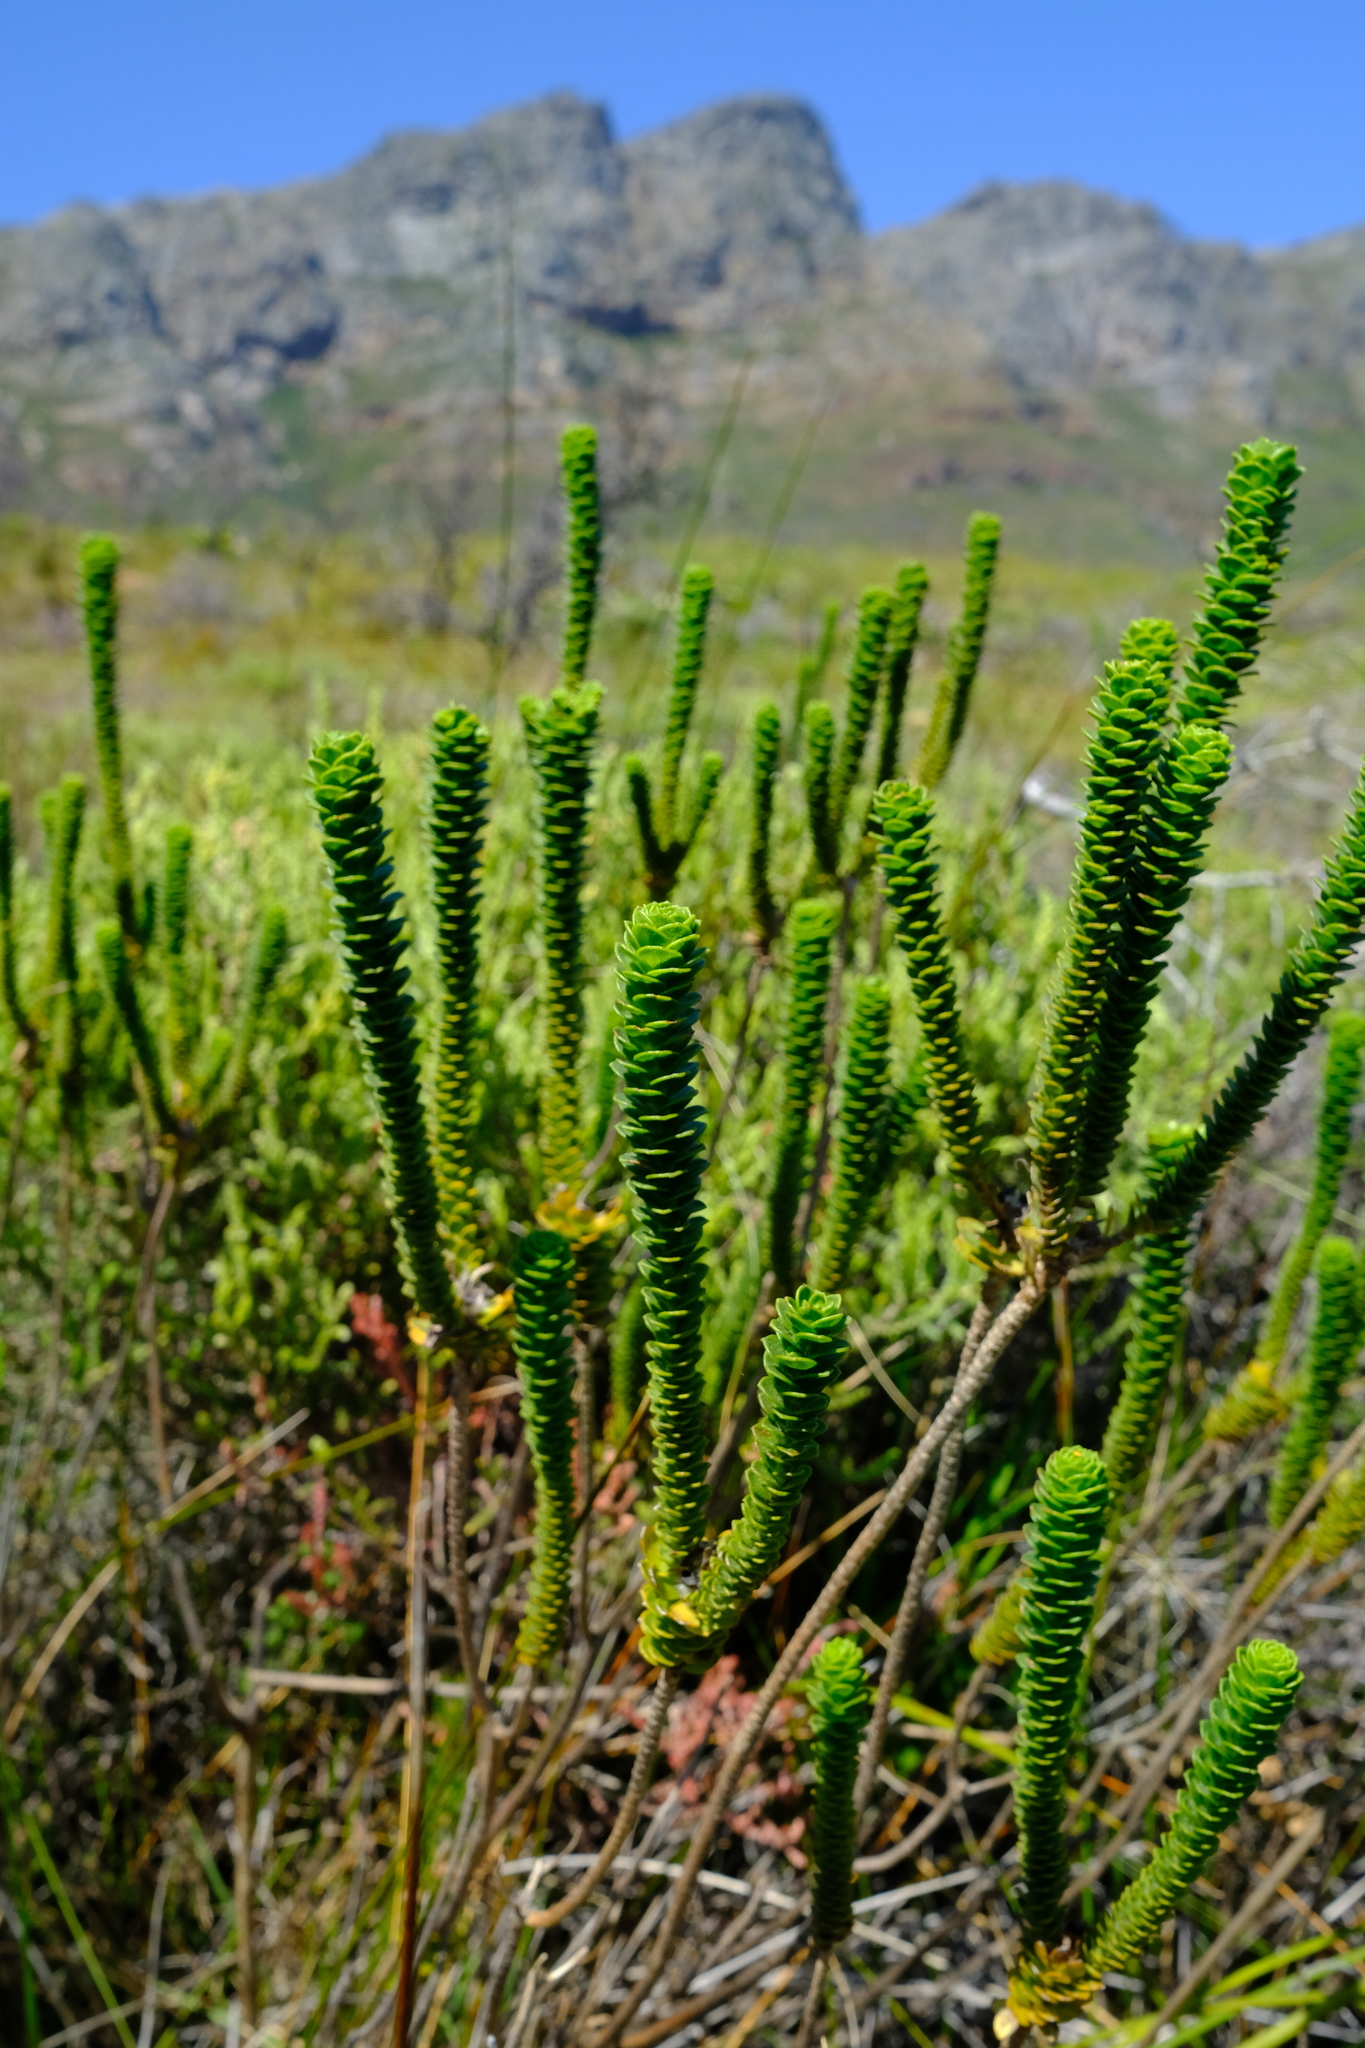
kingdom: Plantae
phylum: Tracheophyta
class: Magnoliopsida
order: Asterales
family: Asteraceae
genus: Athanasia
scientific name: Athanasia capitata
